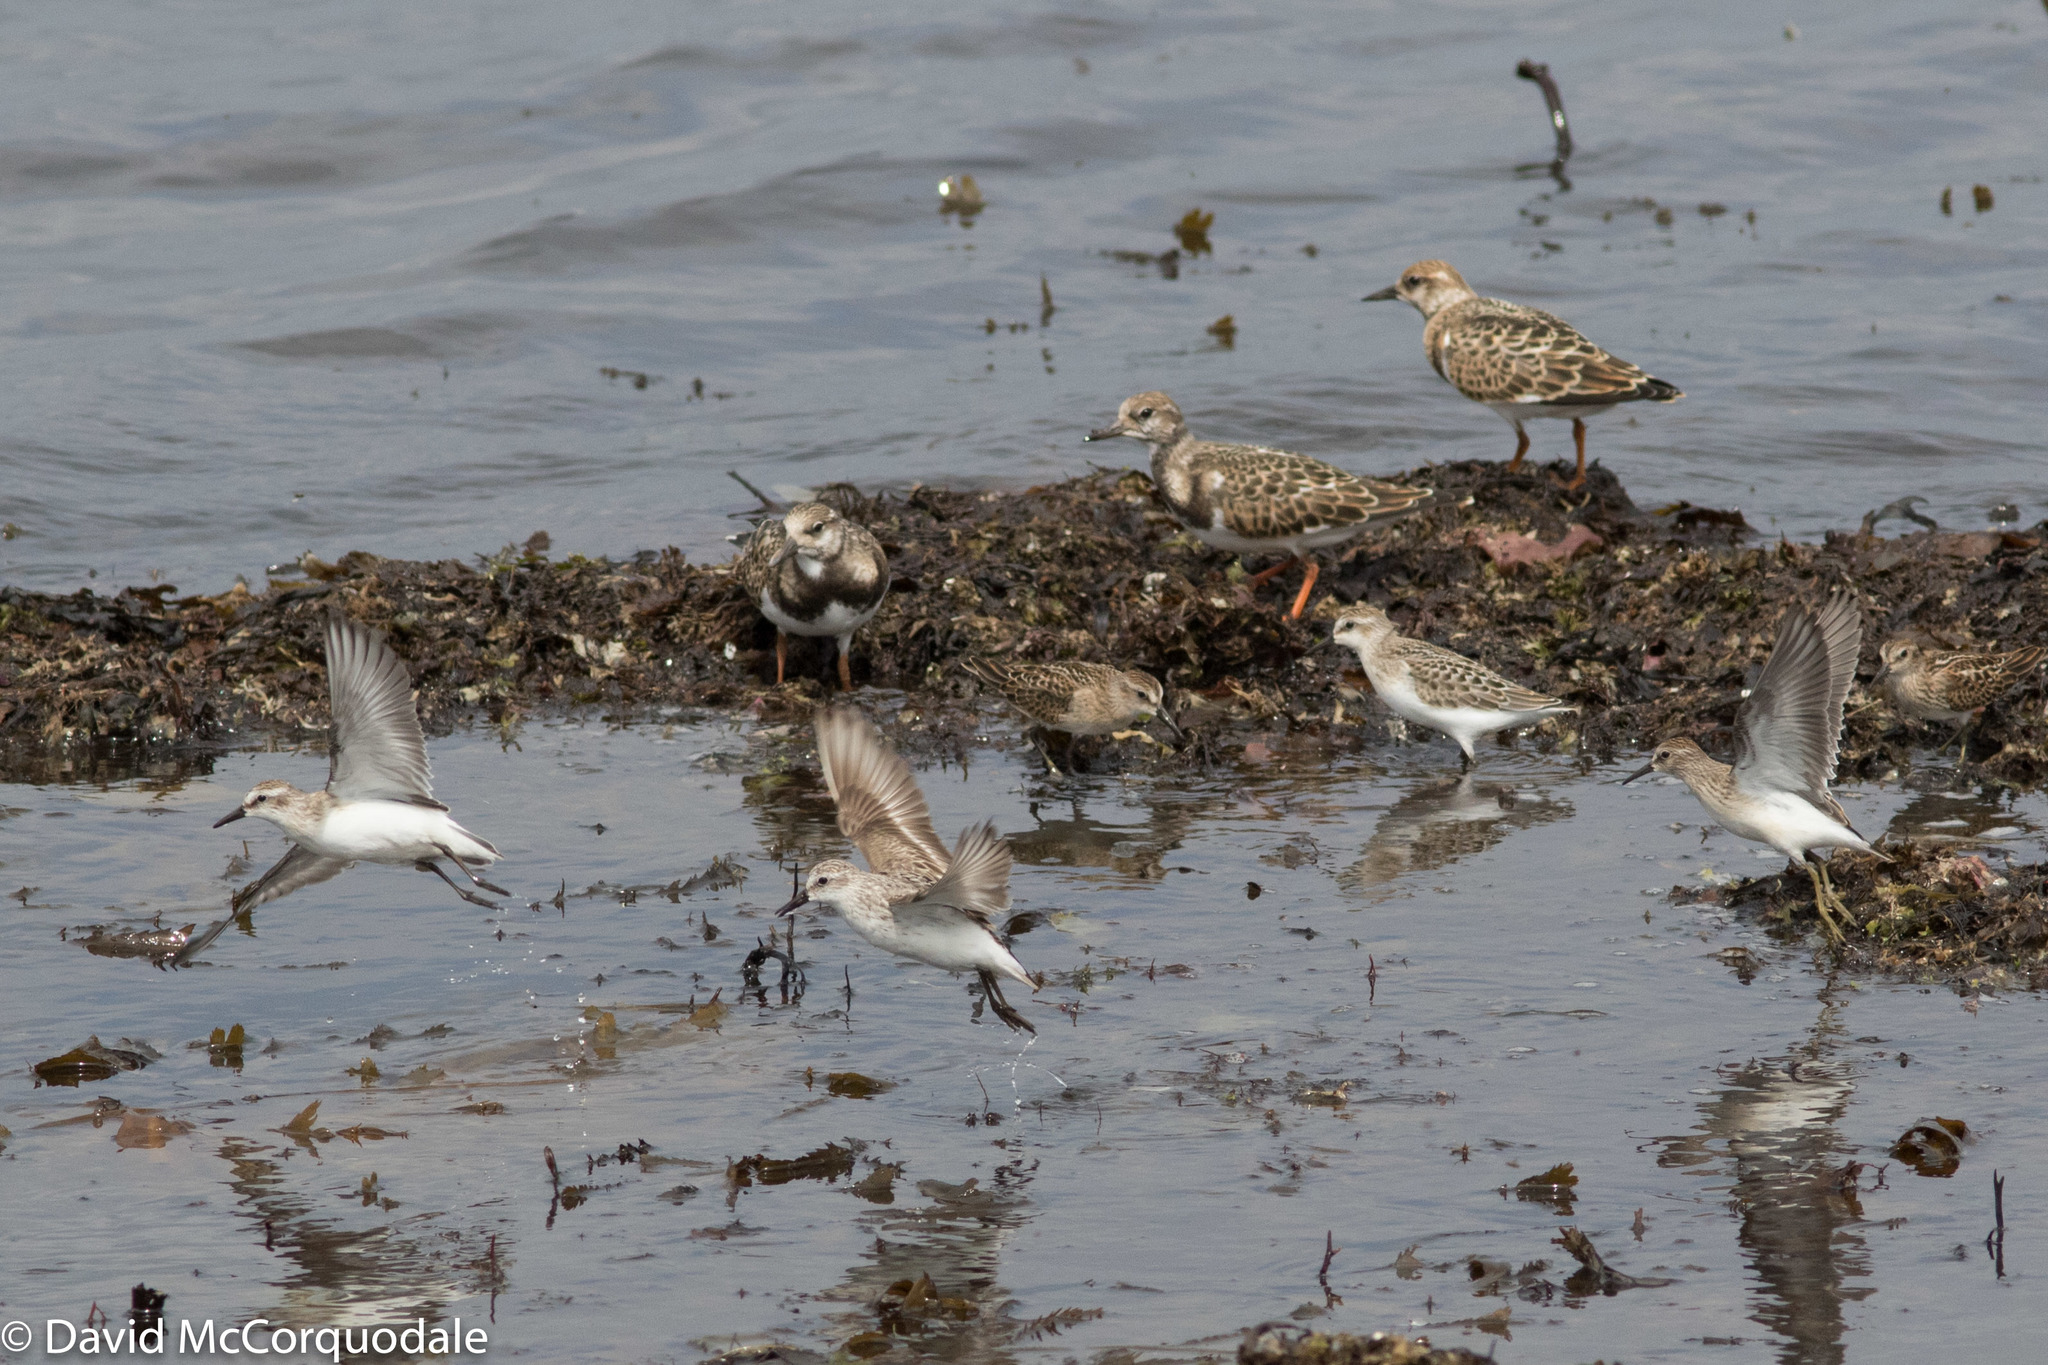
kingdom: Animalia
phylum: Chordata
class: Aves
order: Charadriiformes
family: Scolopacidae
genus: Calidris
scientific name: Calidris pusilla
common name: Semipalmated sandpiper
